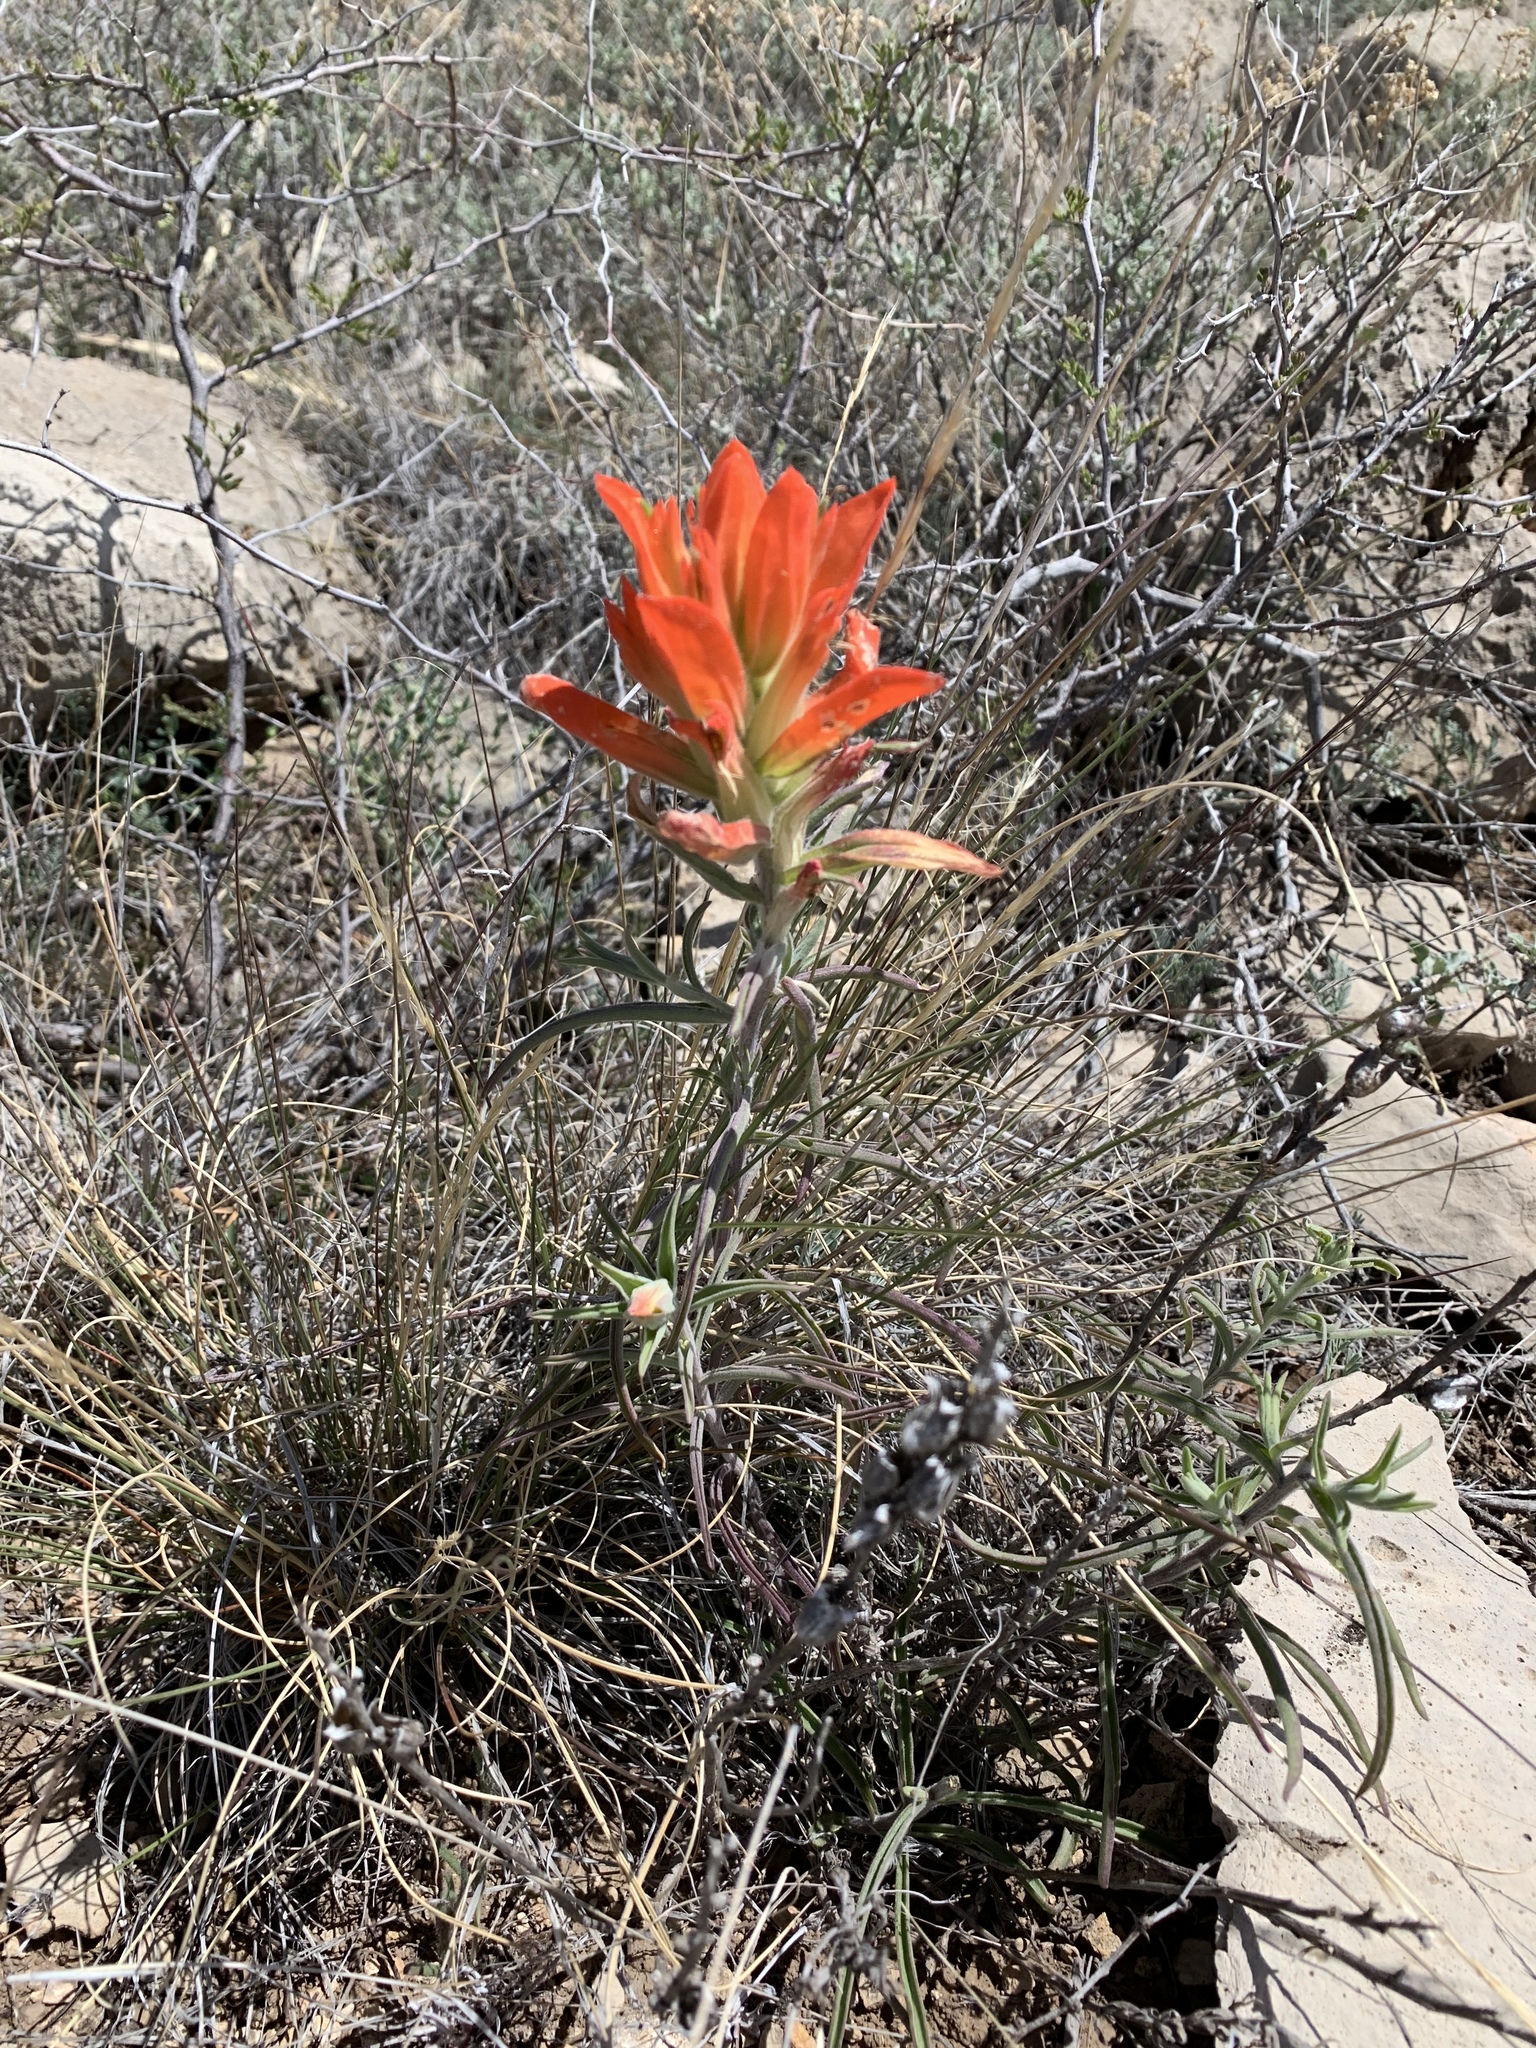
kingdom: Plantae
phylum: Tracheophyta
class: Magnoliopsida
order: Lamiales
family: Orobanchaceae
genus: Castilleja
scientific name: Castilleja integra
